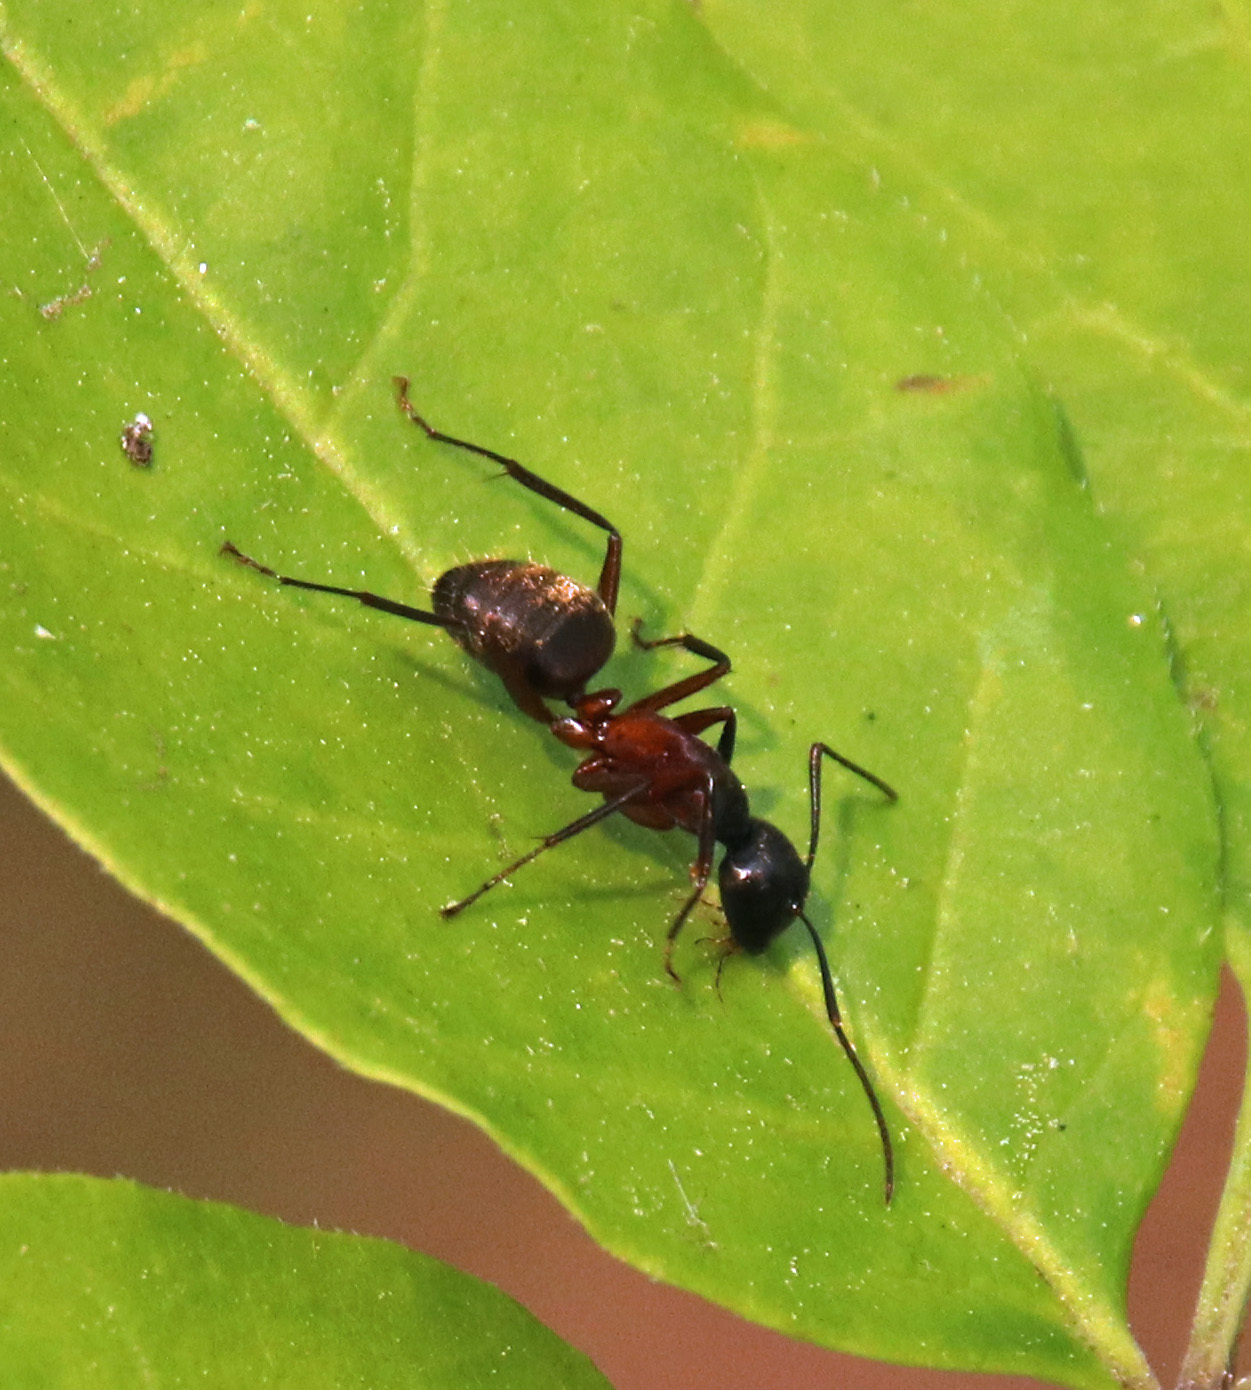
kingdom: Animalia
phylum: Arthropoda
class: Insecta
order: Hymenoptera
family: Formicidae
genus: Camponotus
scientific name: Camponotus chromaiodes
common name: Red carpenter ant
